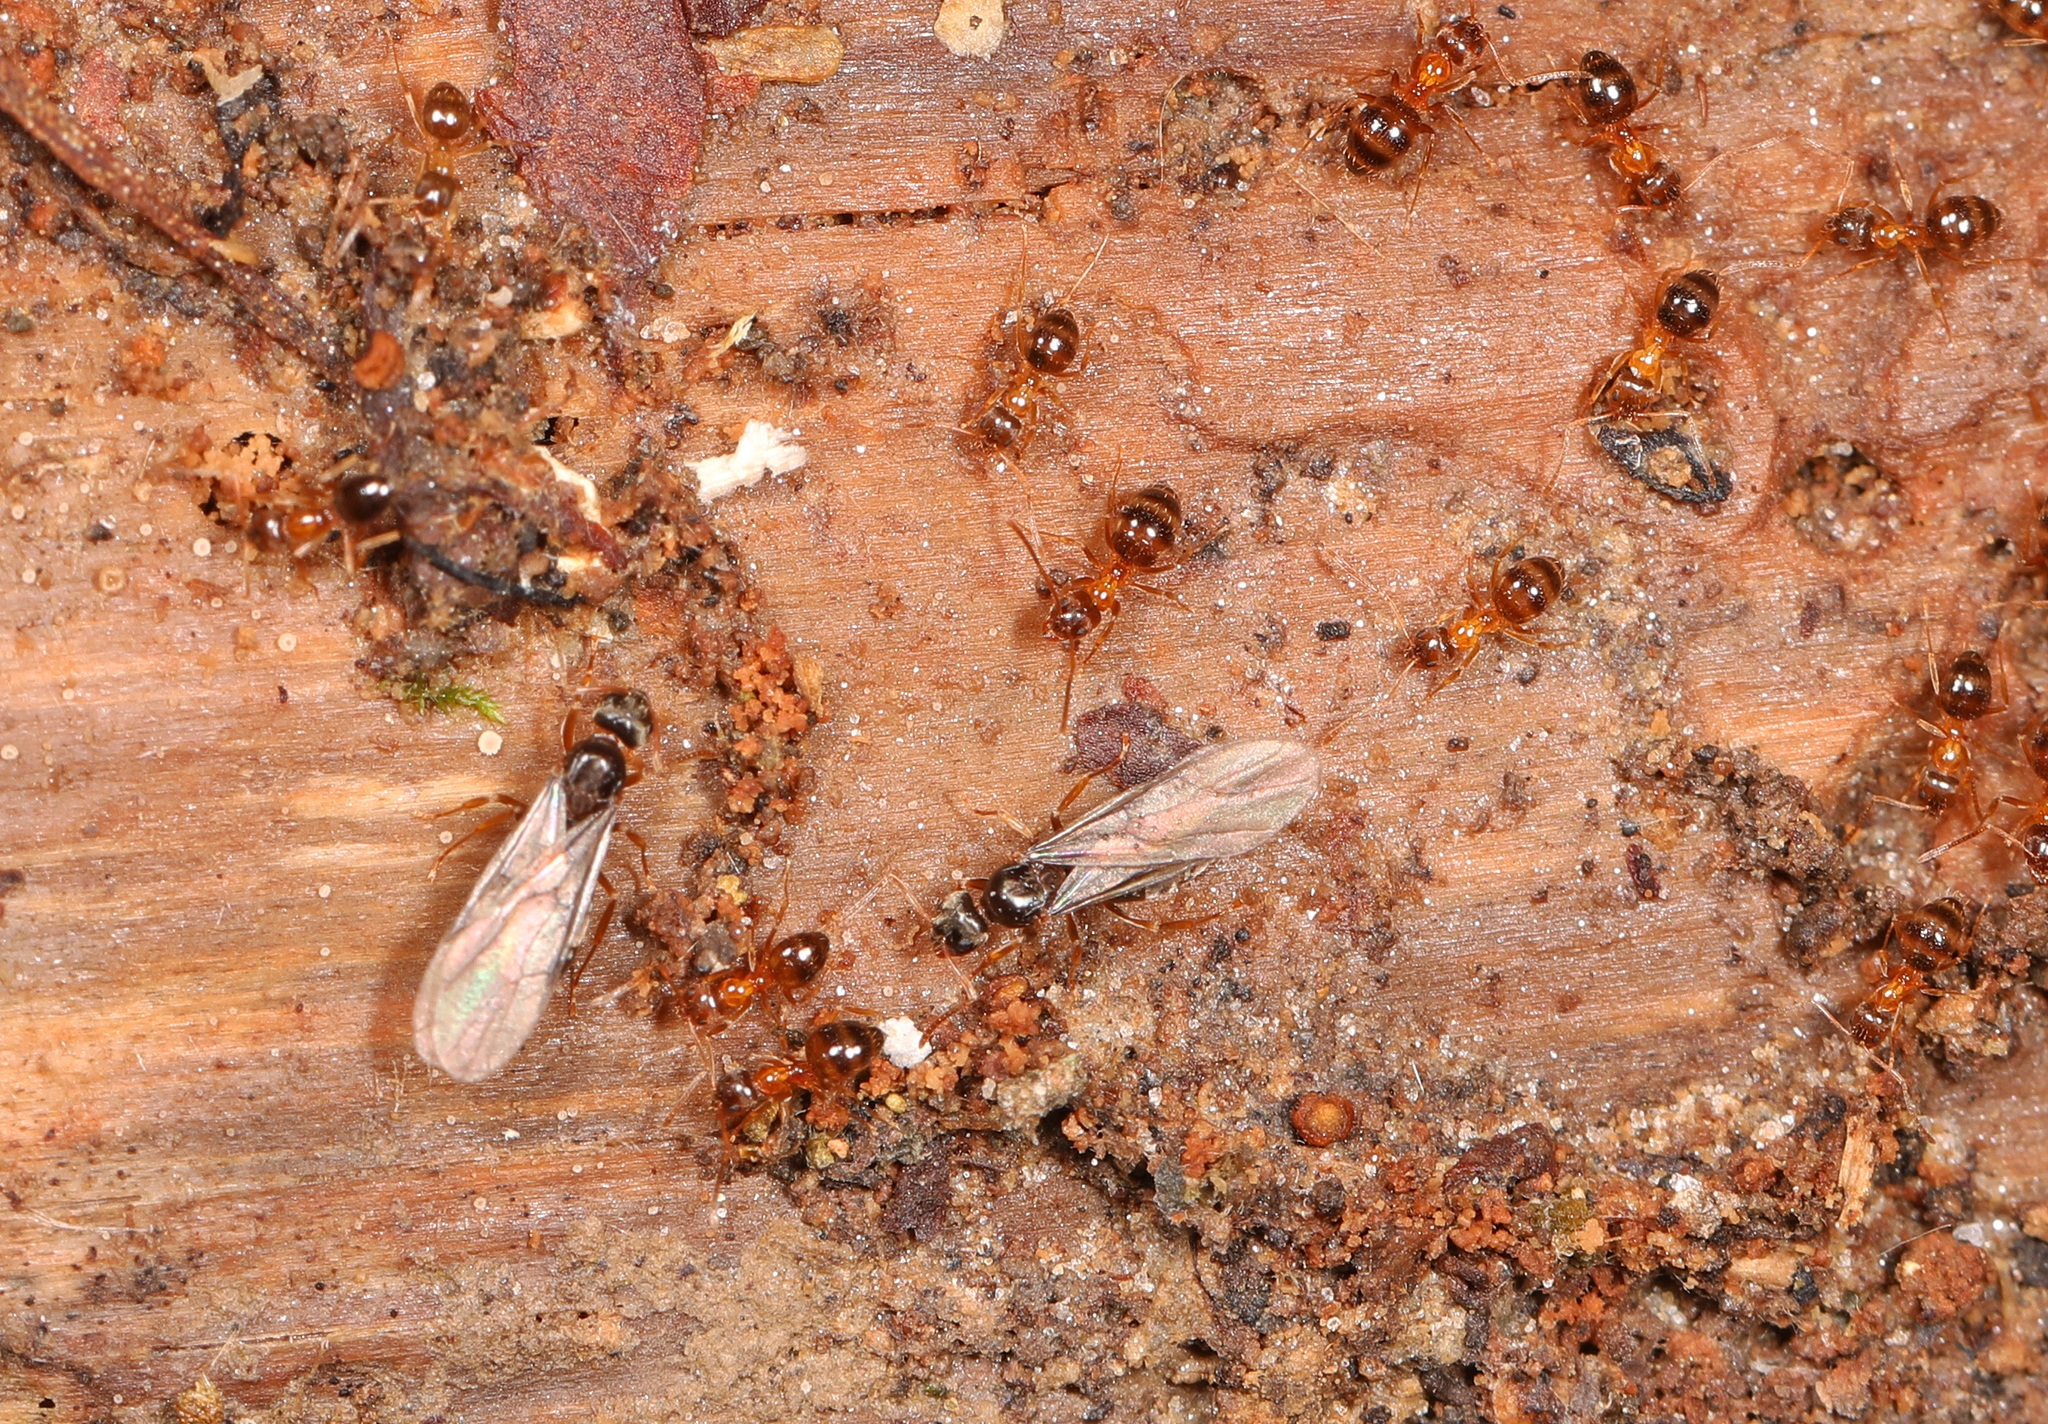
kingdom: Animalia
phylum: Arthropoda
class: Insecta
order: Hymenoptera
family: Formicidae
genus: Paratrechina
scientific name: Paratrechina flavipes
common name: Eastern asian formicine ant
